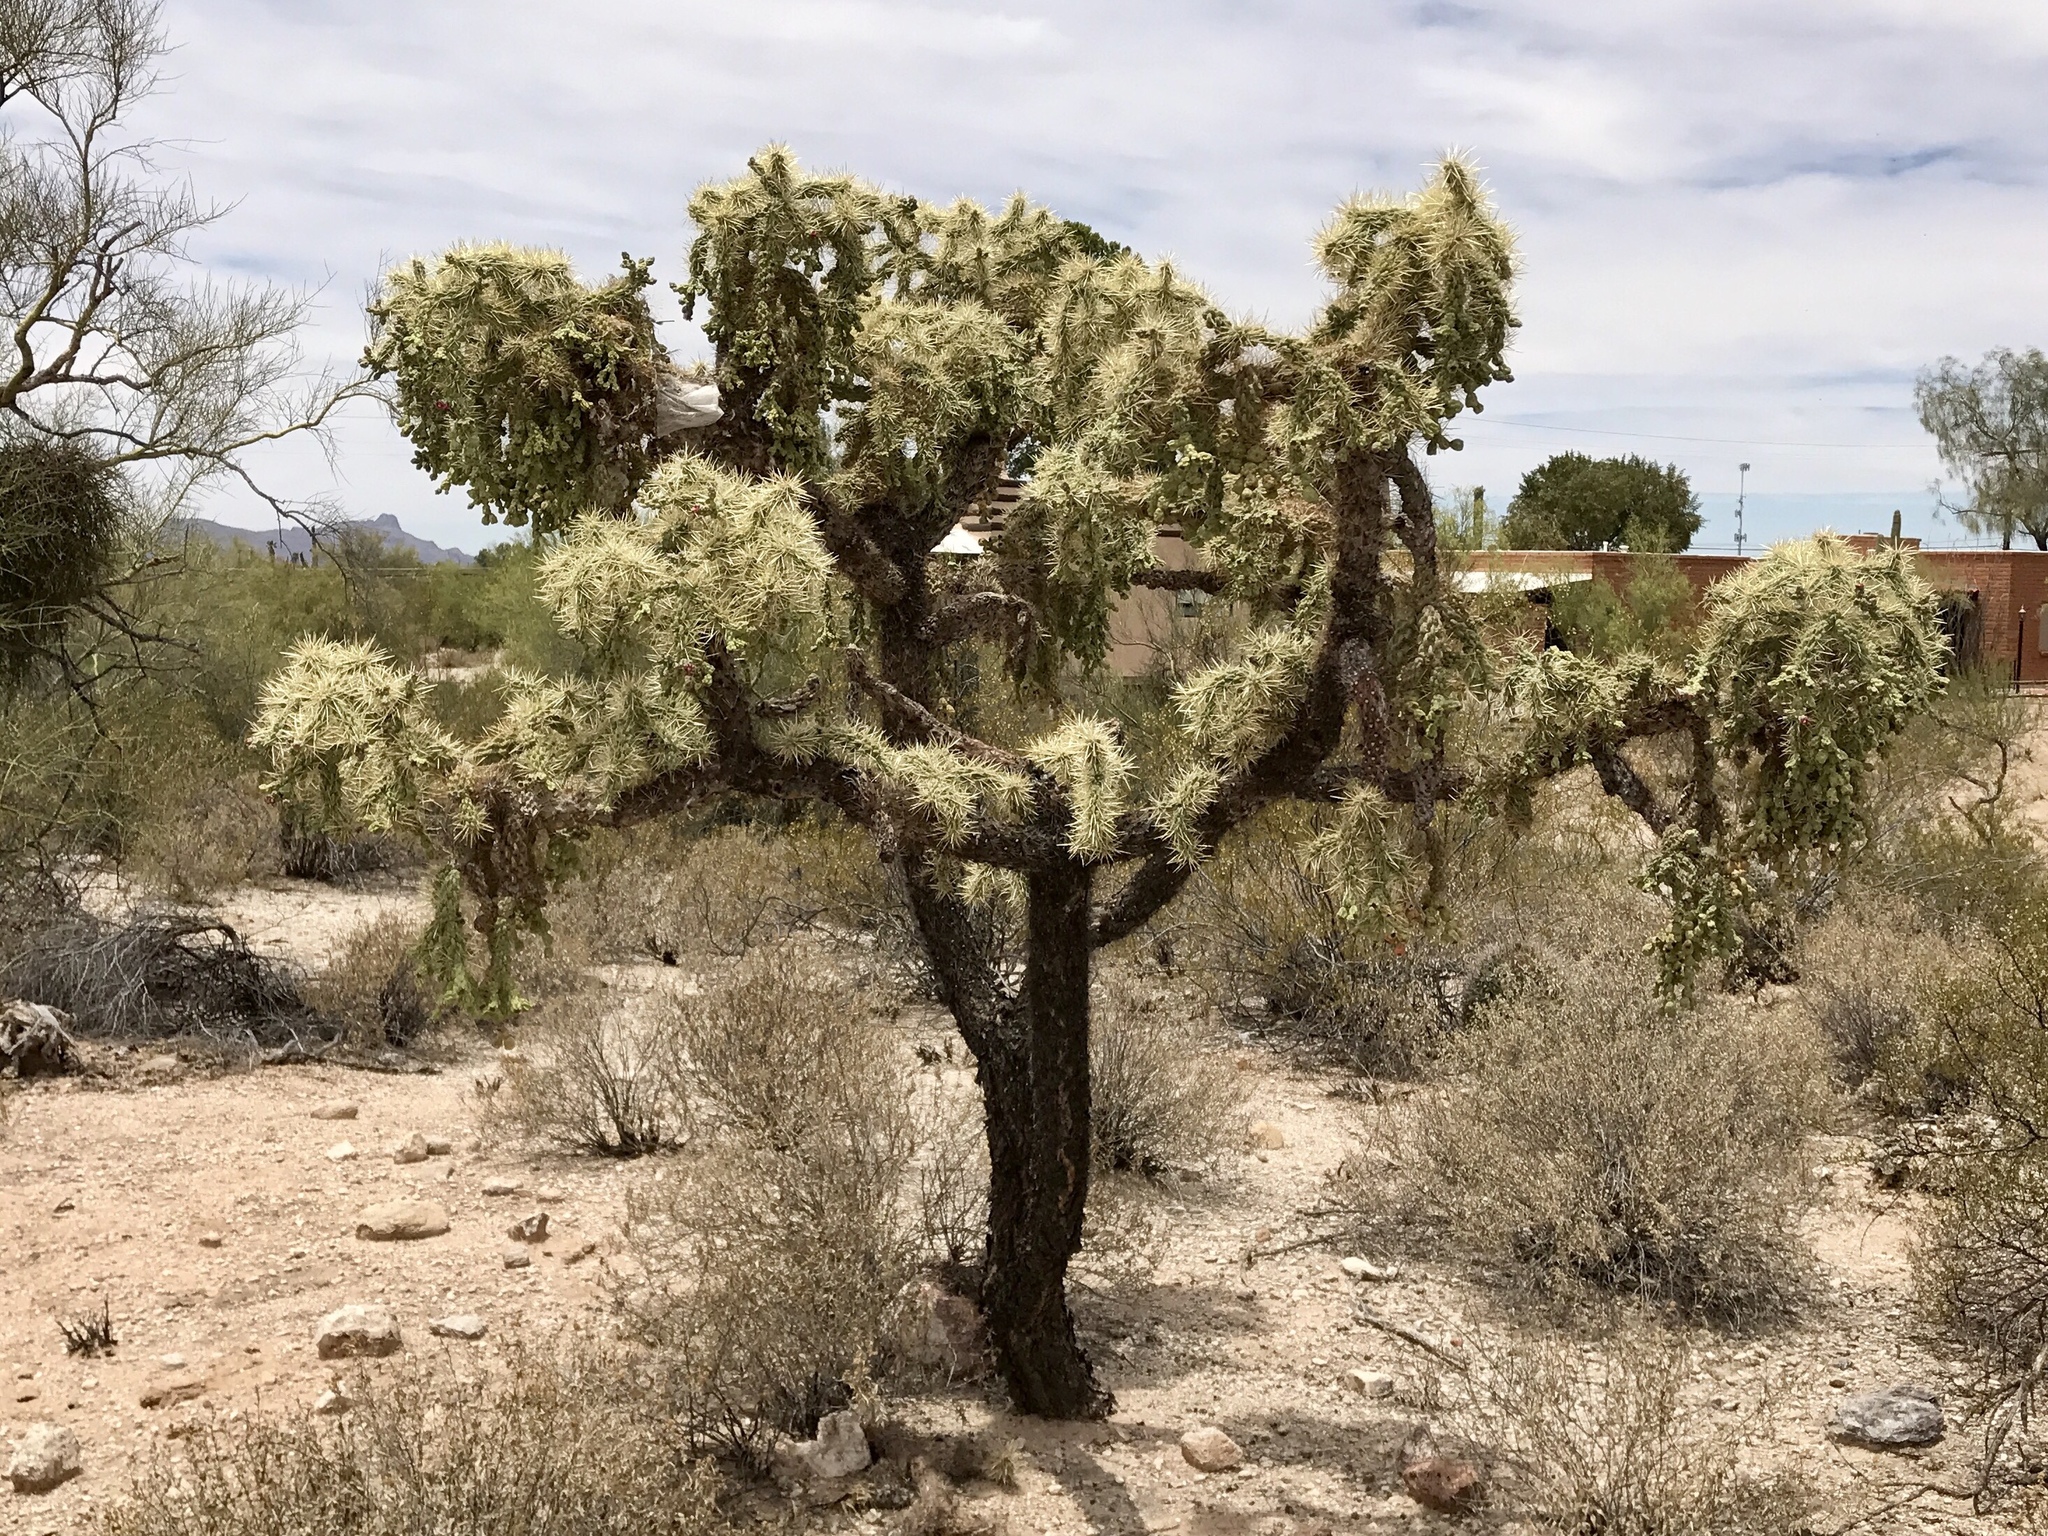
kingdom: Plantae
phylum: Tracheophyta
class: Magnoliopsida
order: Caryophyllales
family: Cactaceae
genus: Cylindropuntia
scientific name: Cylindropuntia fulgida
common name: Jumping cholla
